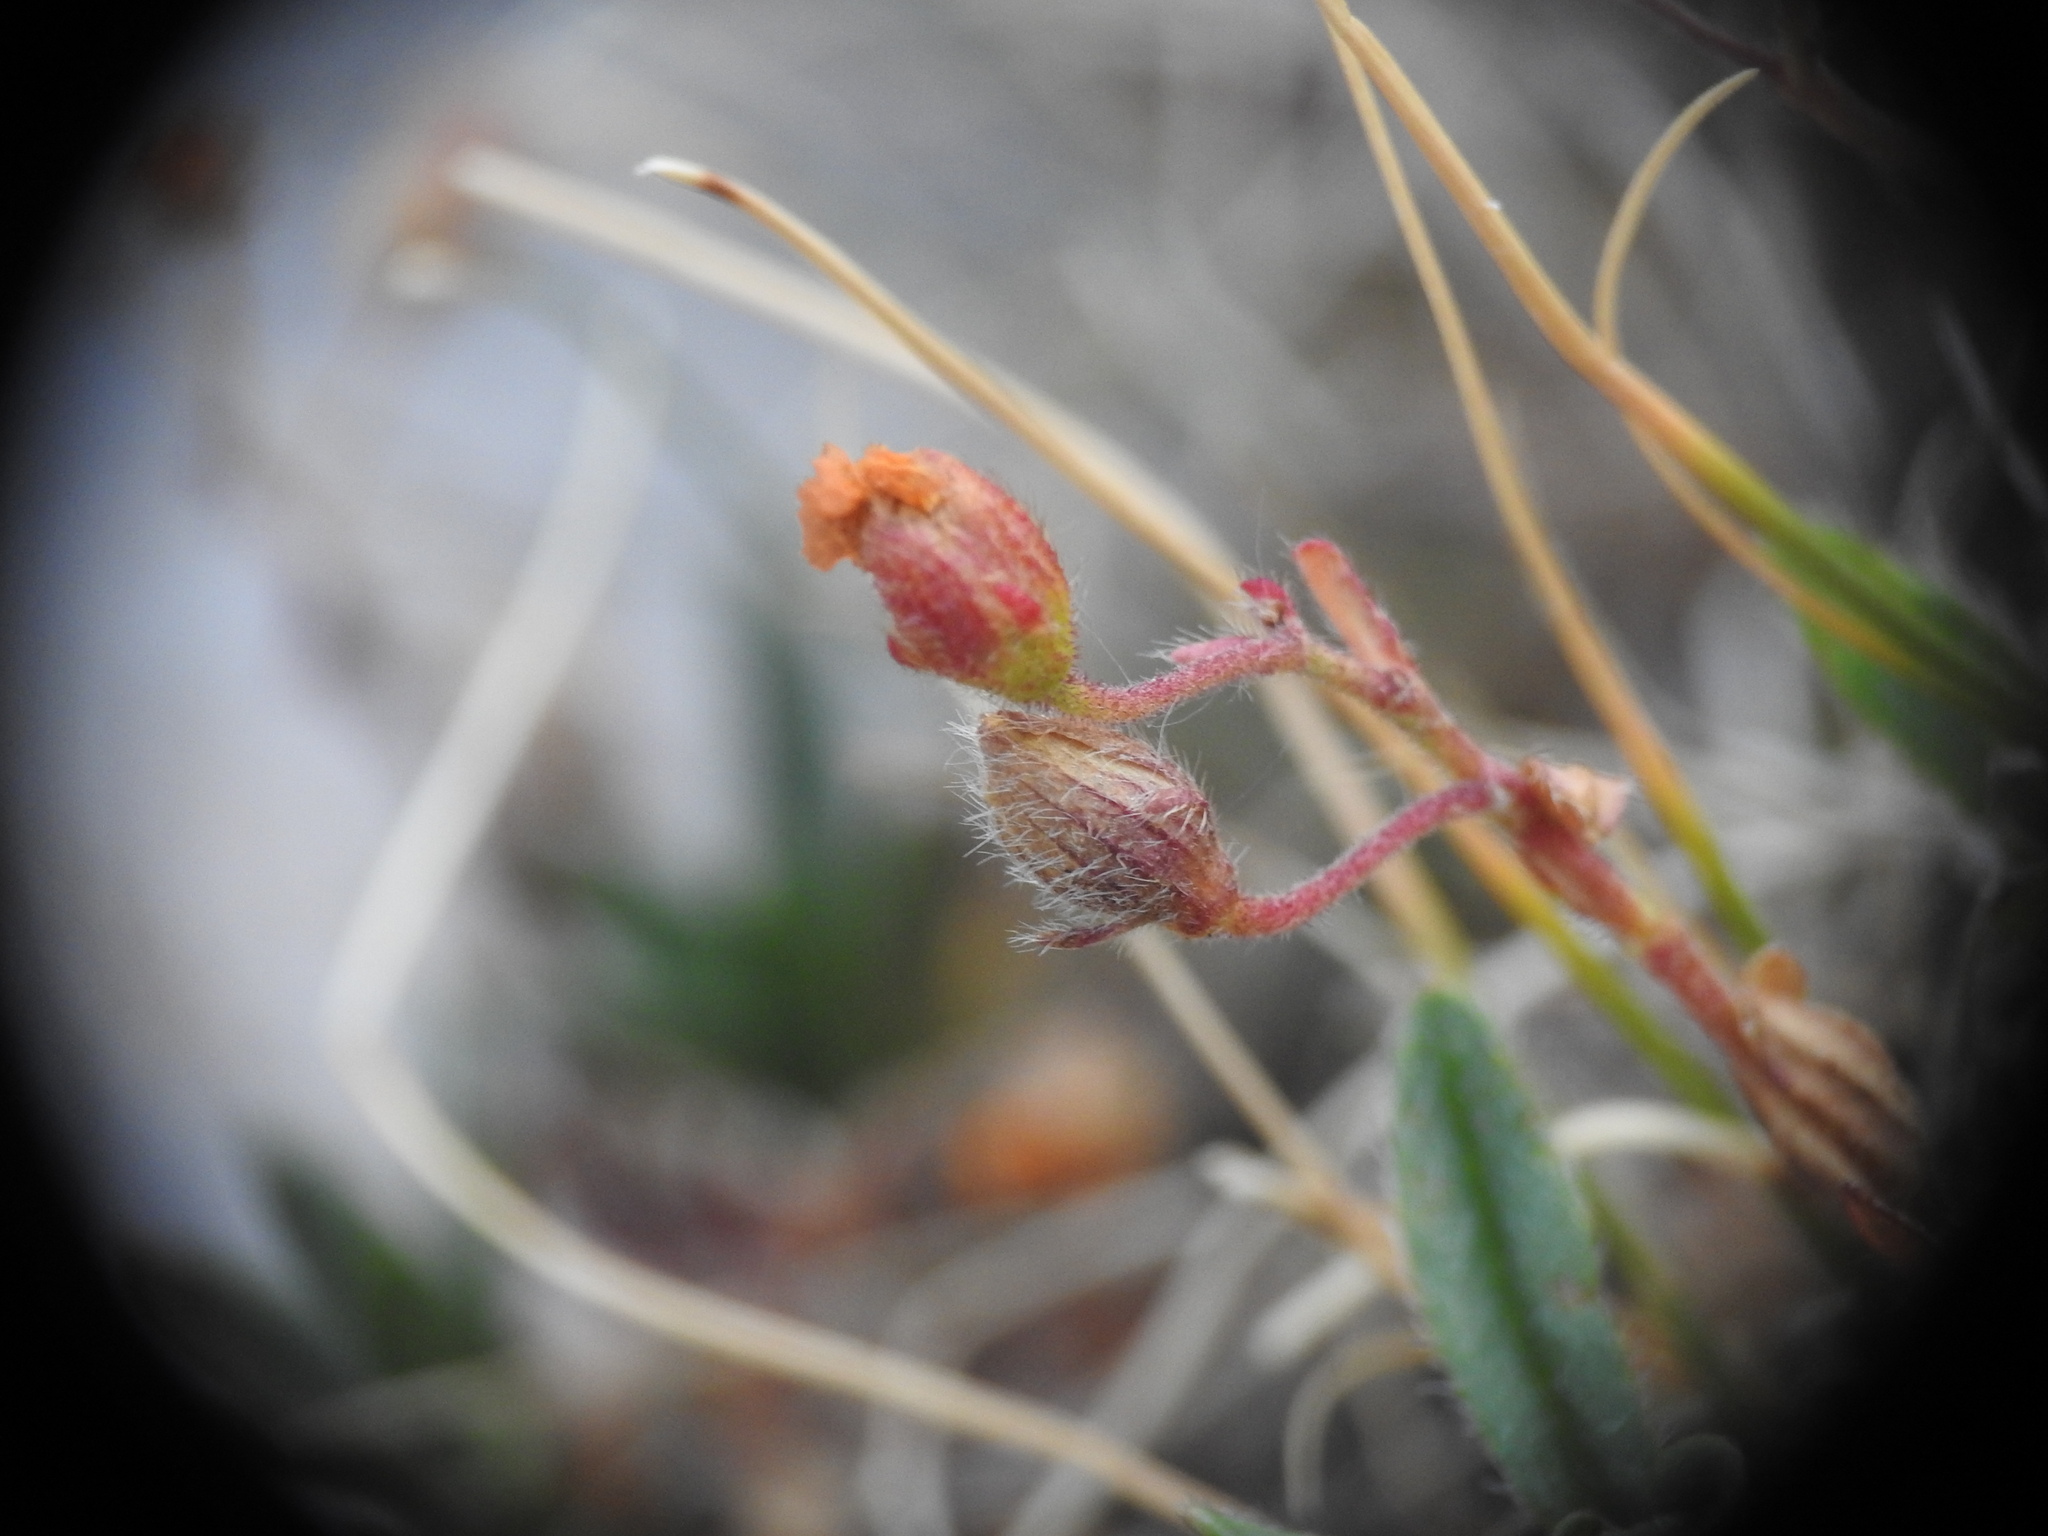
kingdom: Plantae
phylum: Tracheophyta
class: Magnoliopsida
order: Malvales
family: Cistaceae
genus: Helianthemum
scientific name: Helianthemum oelandicum
